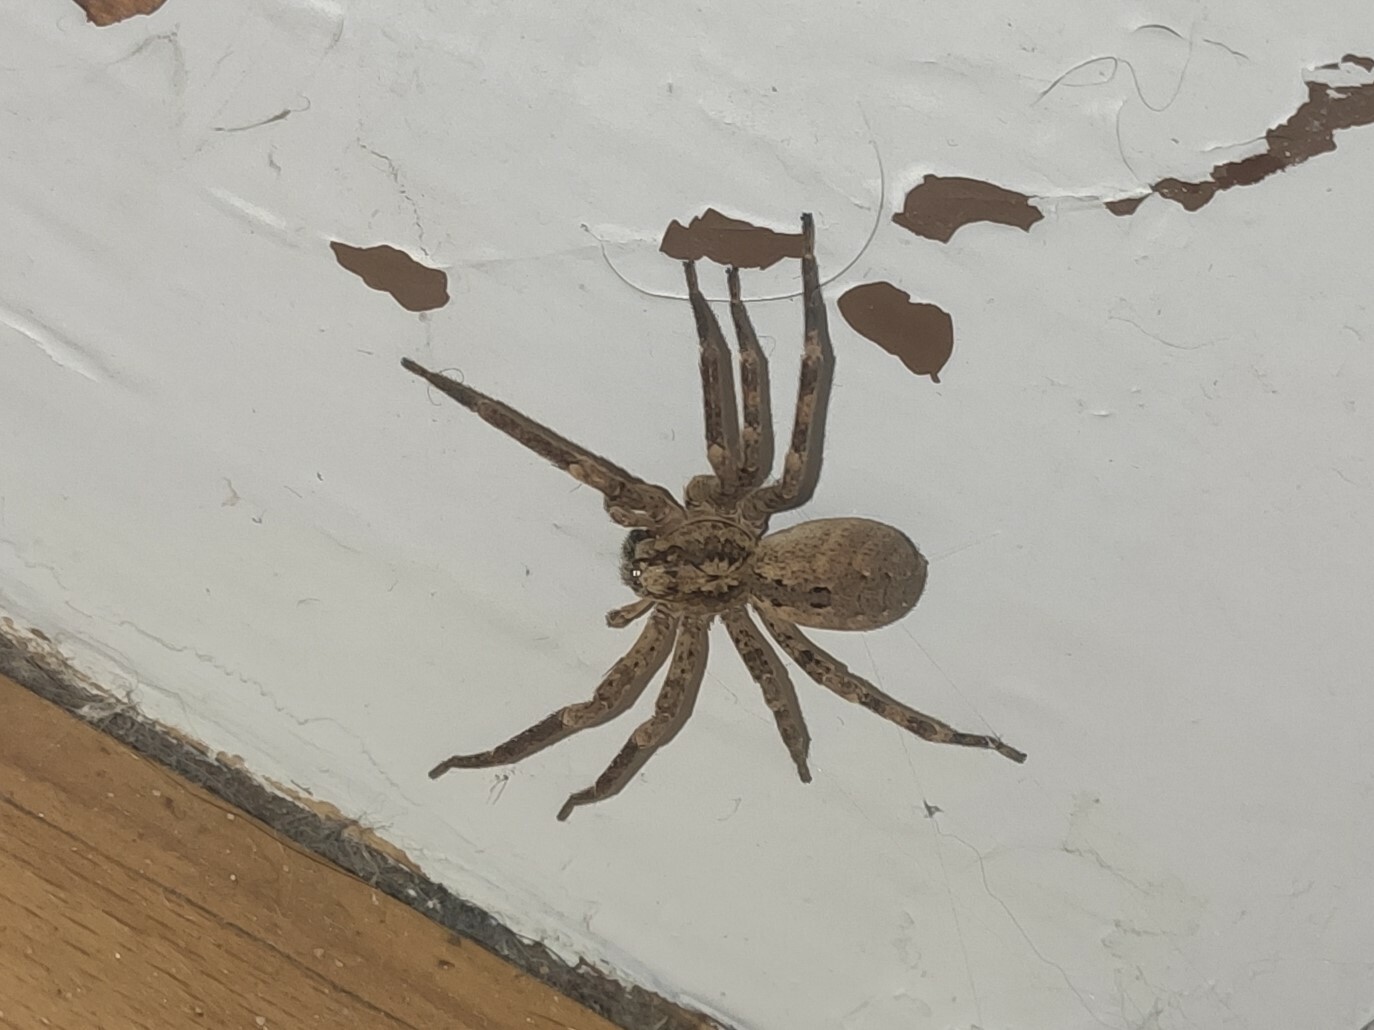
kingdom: Animalia
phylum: Arthropoda
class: Arachnida
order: Araneae
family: Zoropsidae
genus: Zoropsis
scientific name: Zoropsis spinimana
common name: Zoropsid spider
